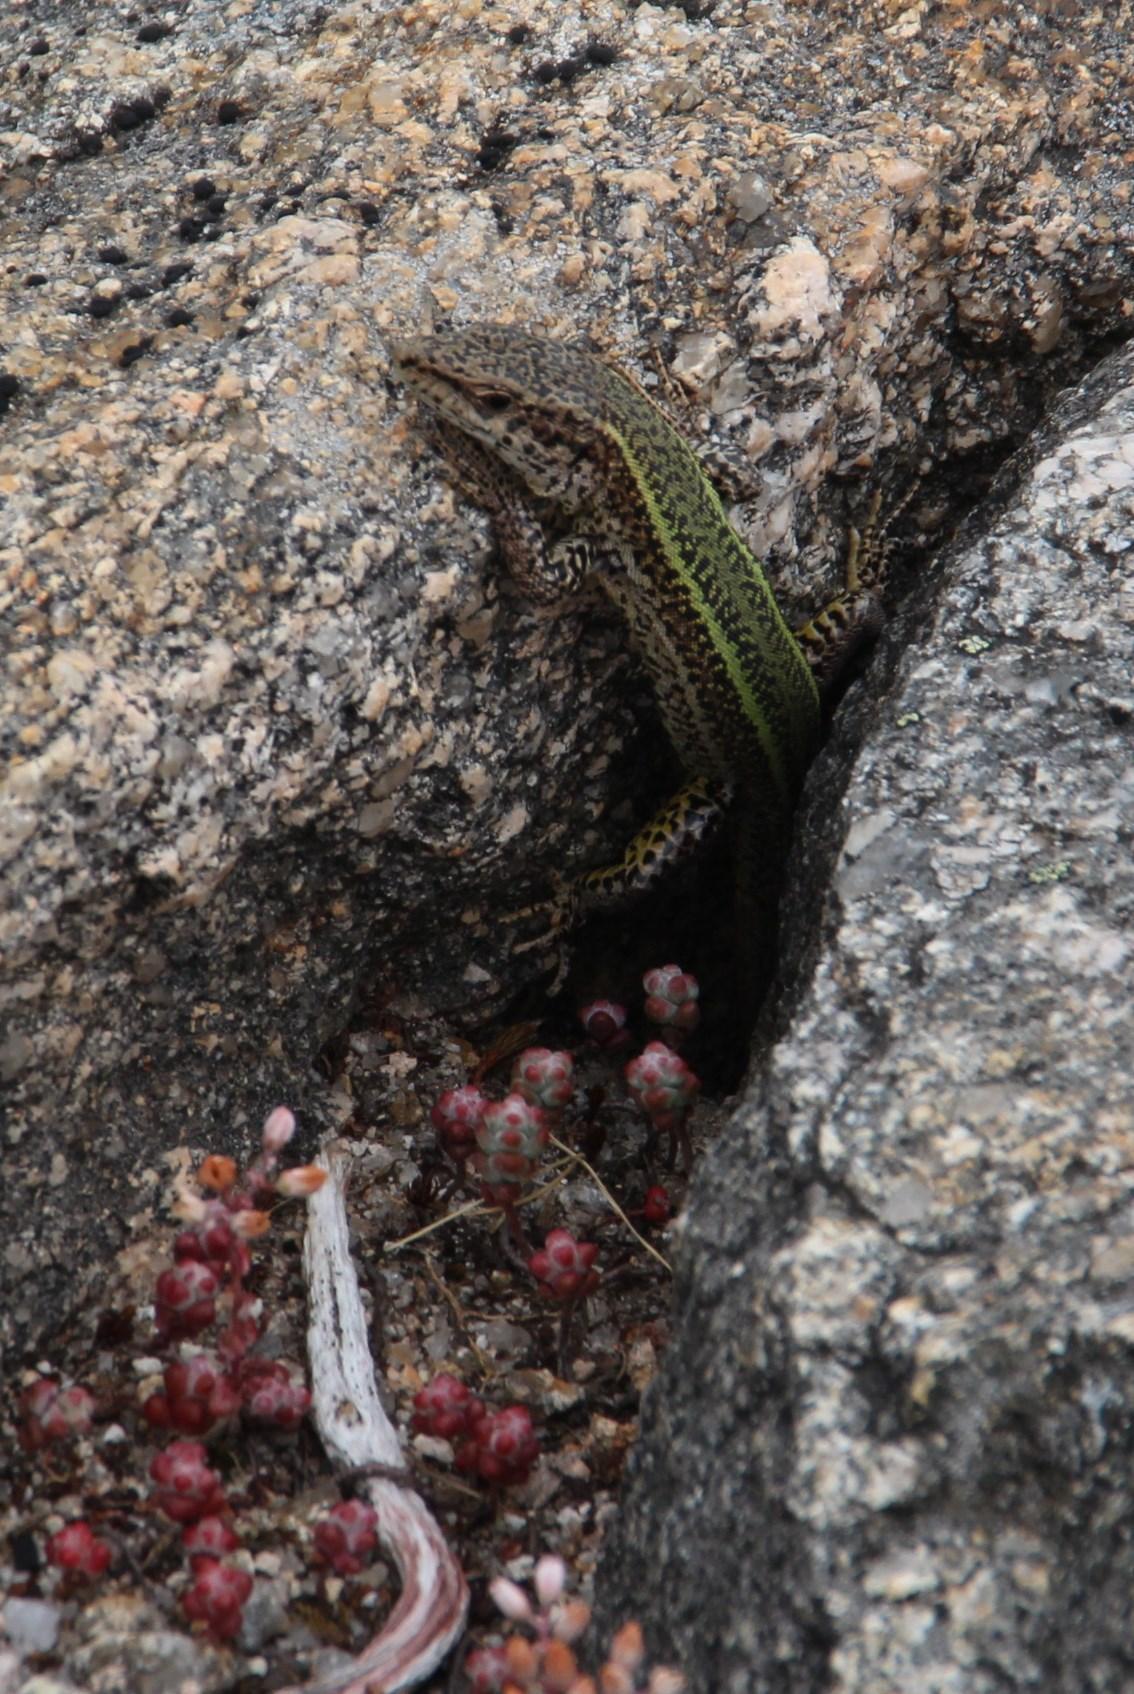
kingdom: Animalia
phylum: Chordata
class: Squamata
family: Lacertidae
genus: Podarcis
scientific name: Podarcis bocagei
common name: Bocage's wall lizard
